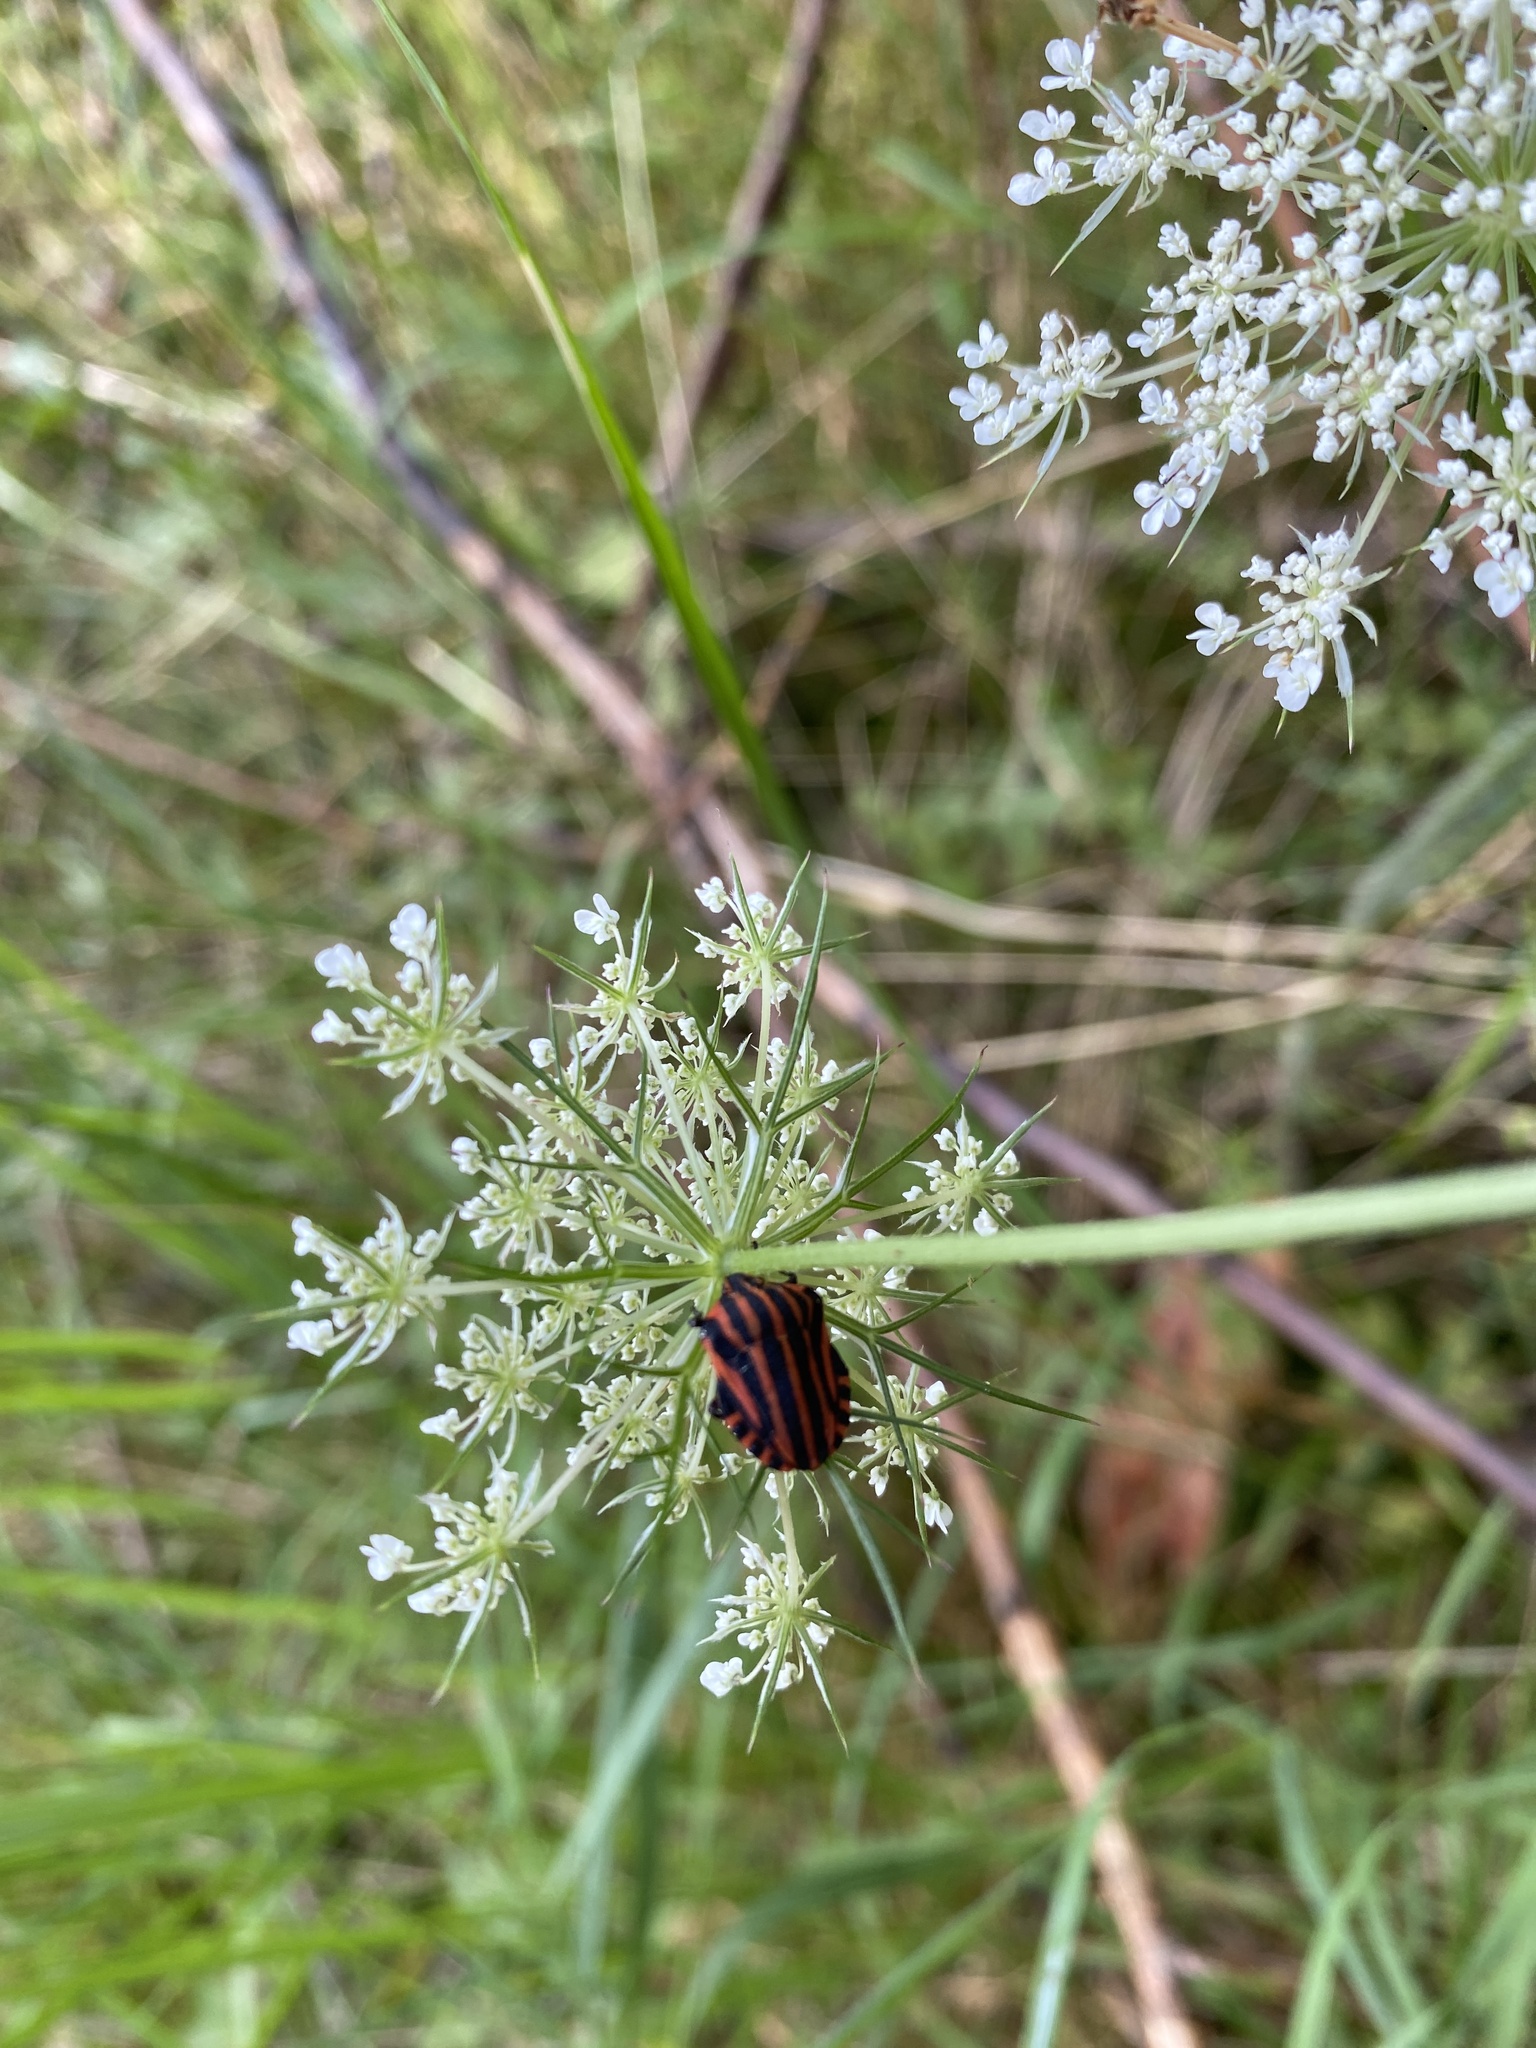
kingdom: Animalia
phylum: Arthropoda
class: Insecta
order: Hemiptera
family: Pentatomidae
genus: Graphosoma
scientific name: Graphosoma italicum
